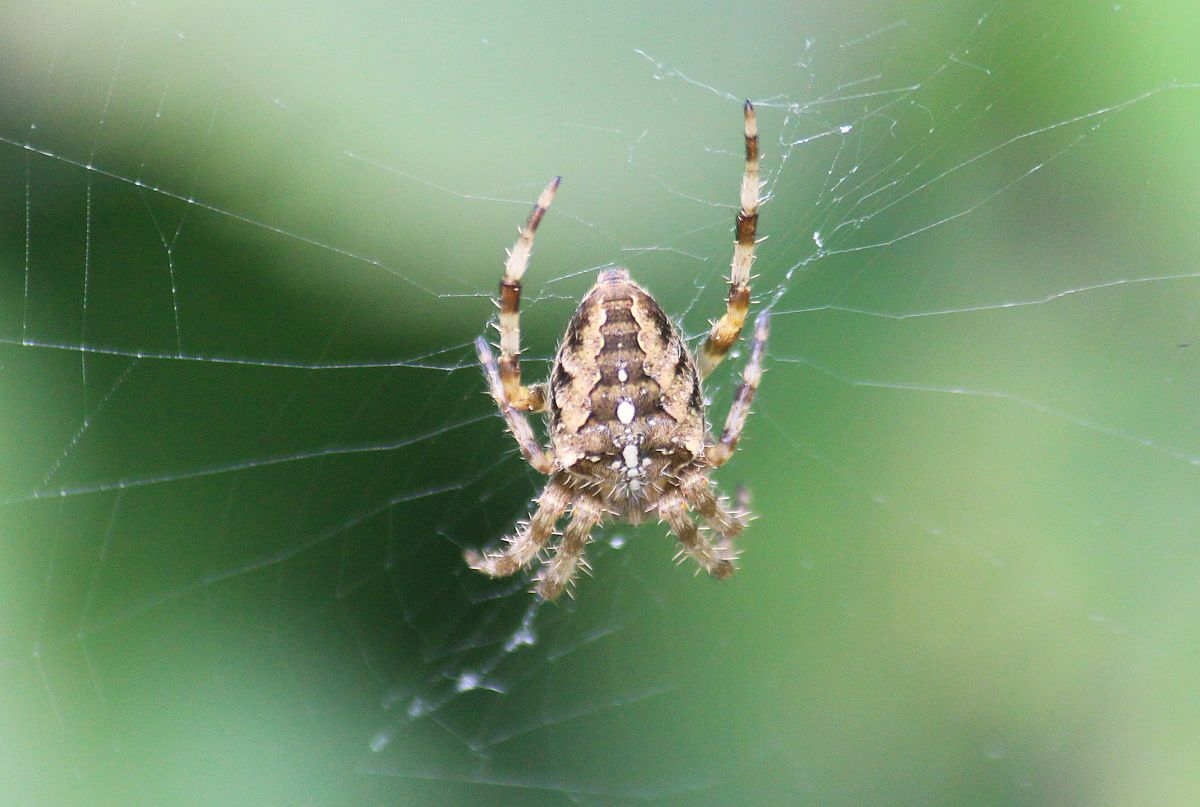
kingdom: Animalia
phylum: Arthropoda
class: Arachnida
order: Araneae
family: Araneidae
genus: Araneus
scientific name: Araneus diadematus
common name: Cross orbweaver
